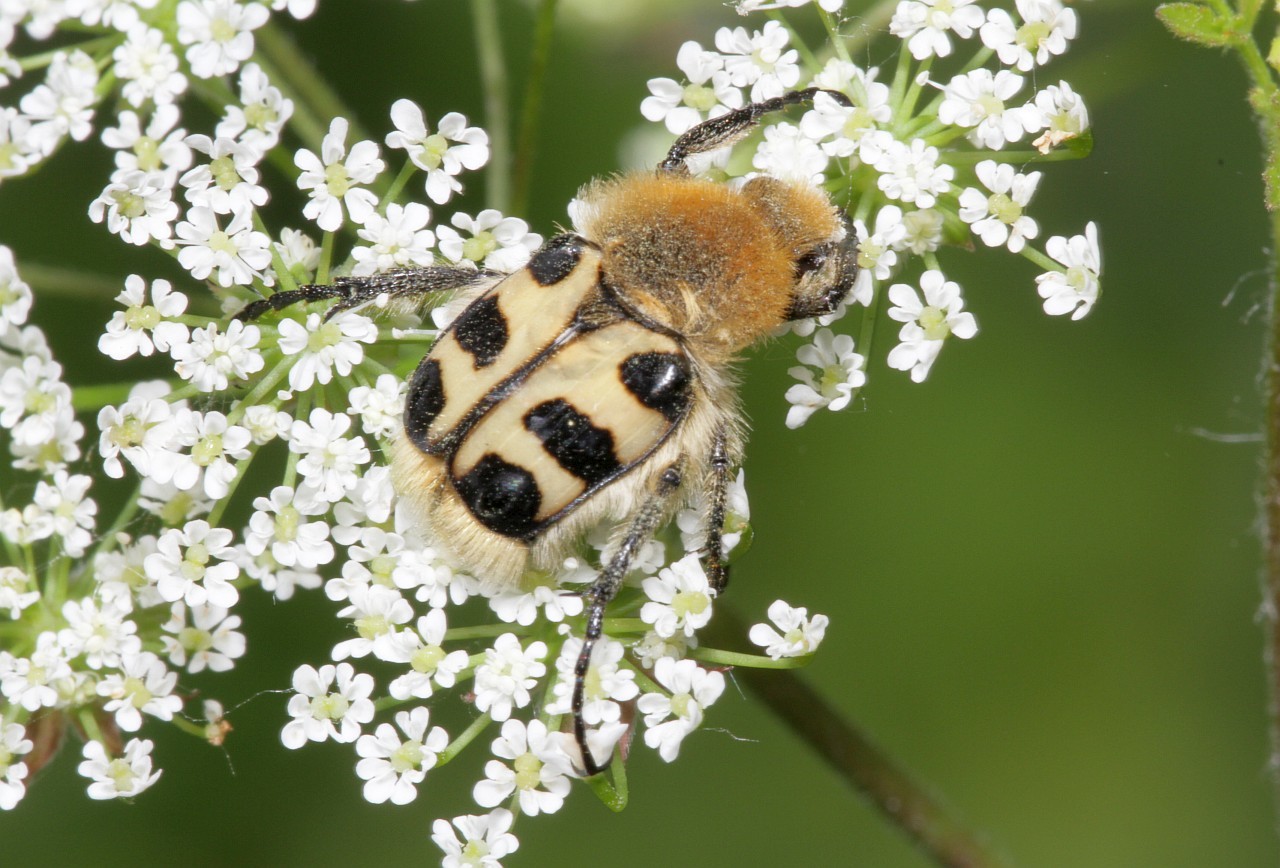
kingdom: Animalia
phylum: Arthropoda
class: Insecta
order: Coleoptera
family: Scarabaeidae
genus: Trichius
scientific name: Trichius gallicus
